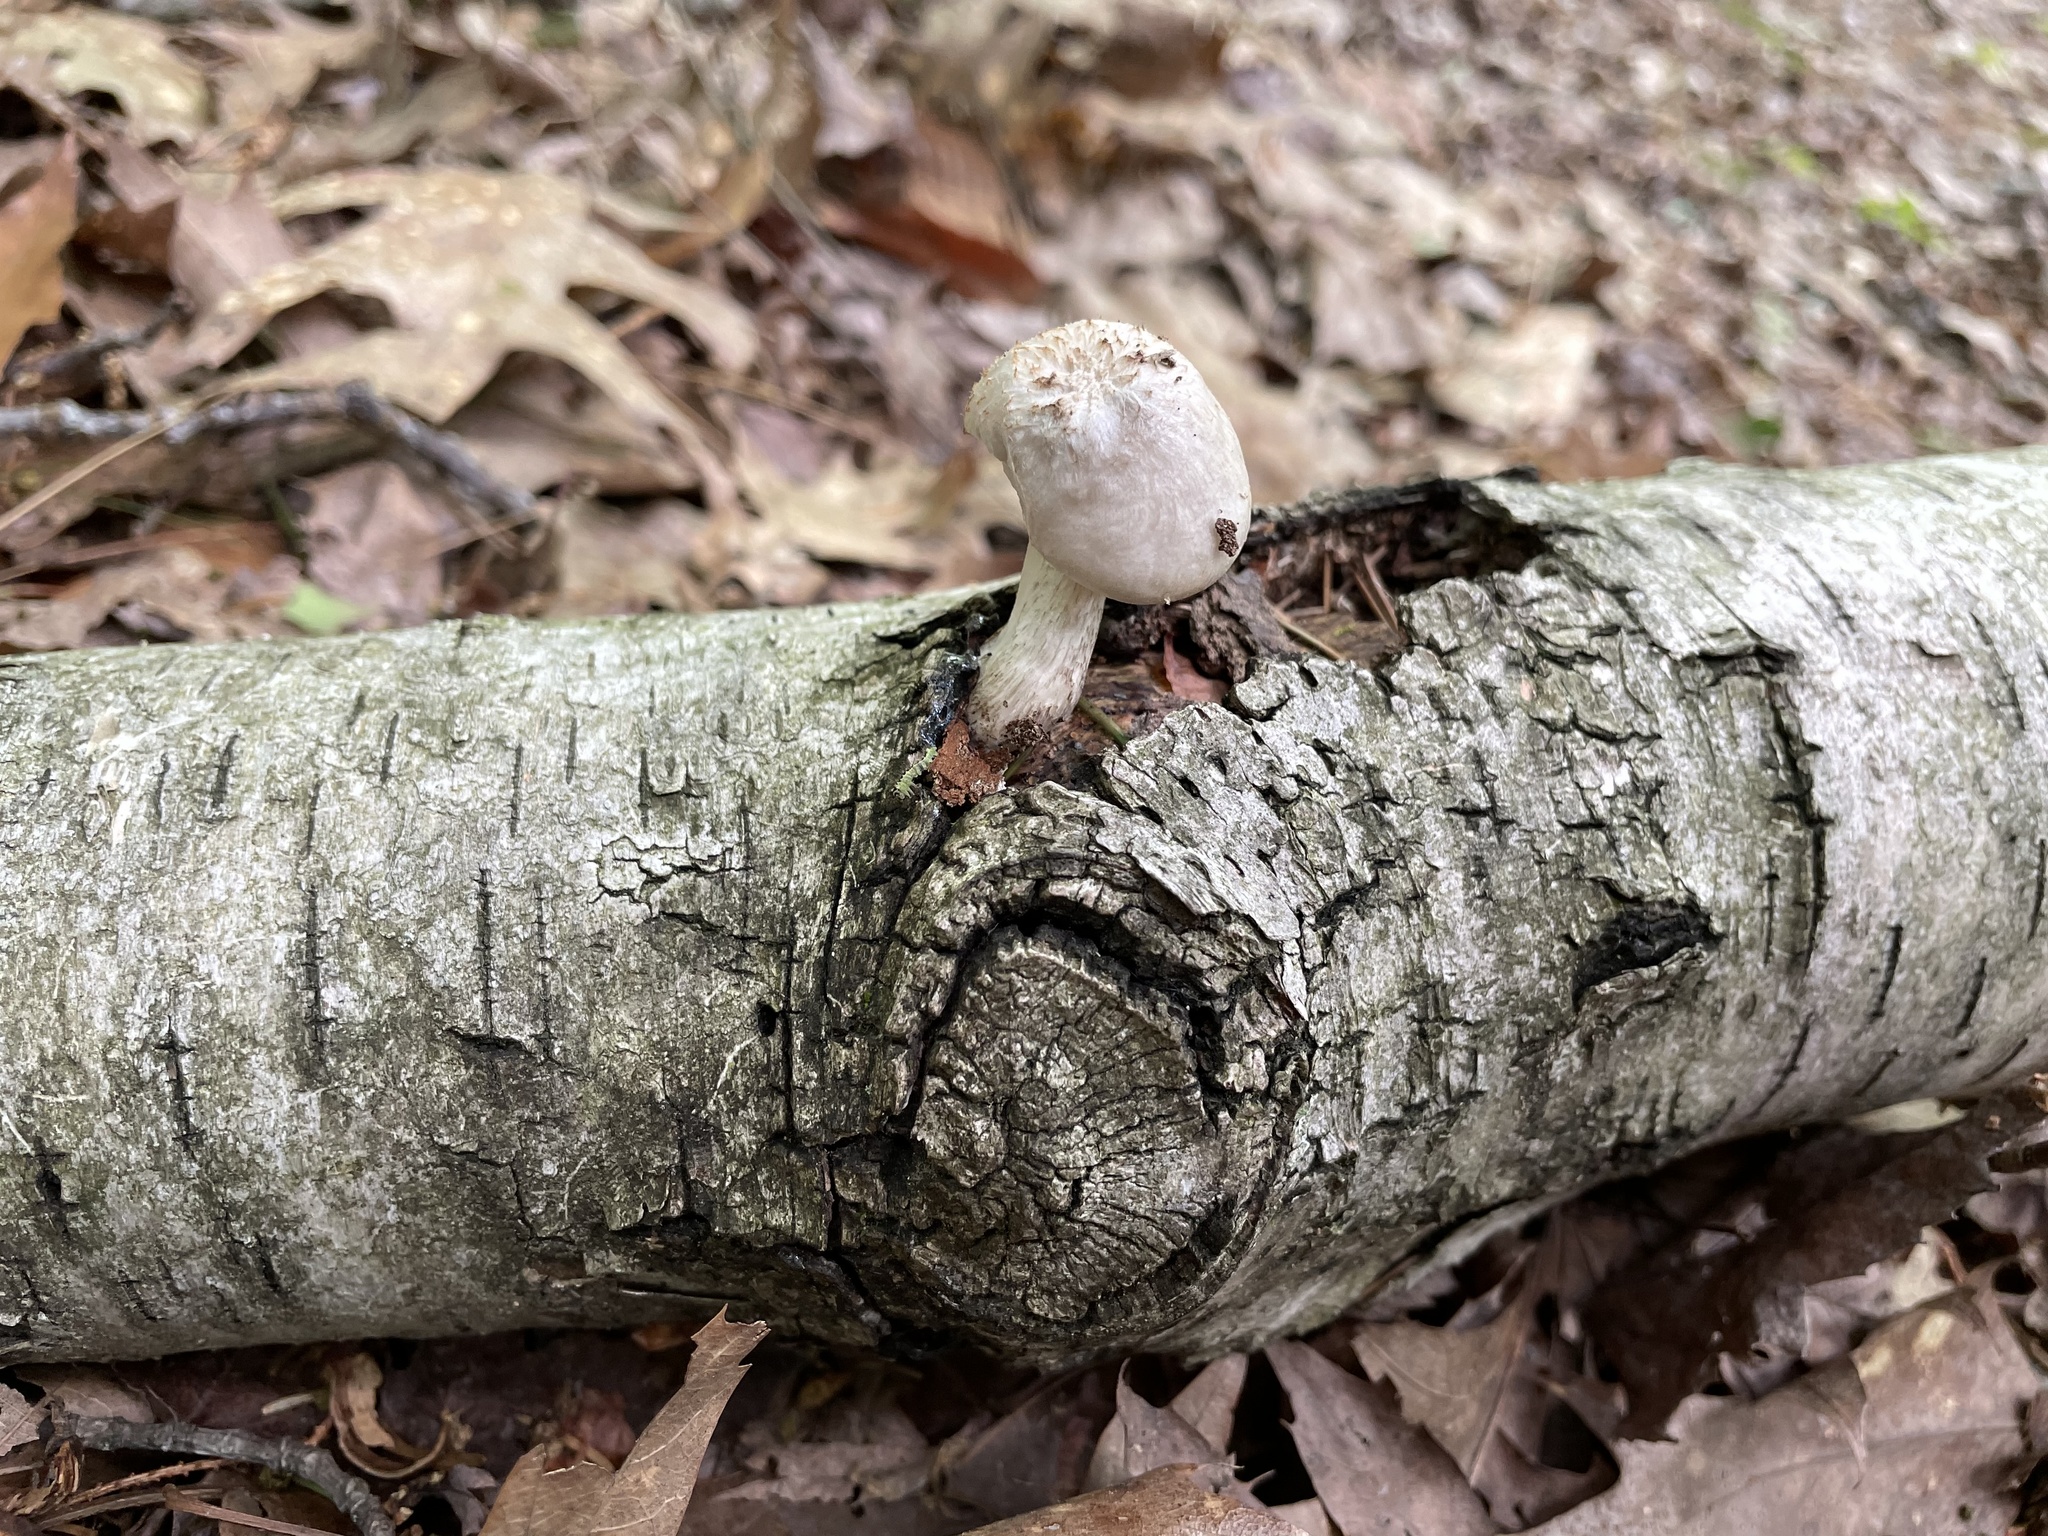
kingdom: Fungi
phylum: Basidiomycota
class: Agaricomycetes
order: Agaricales
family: Pluteaceae
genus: Pluteus
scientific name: Pluteus tomentosulus
